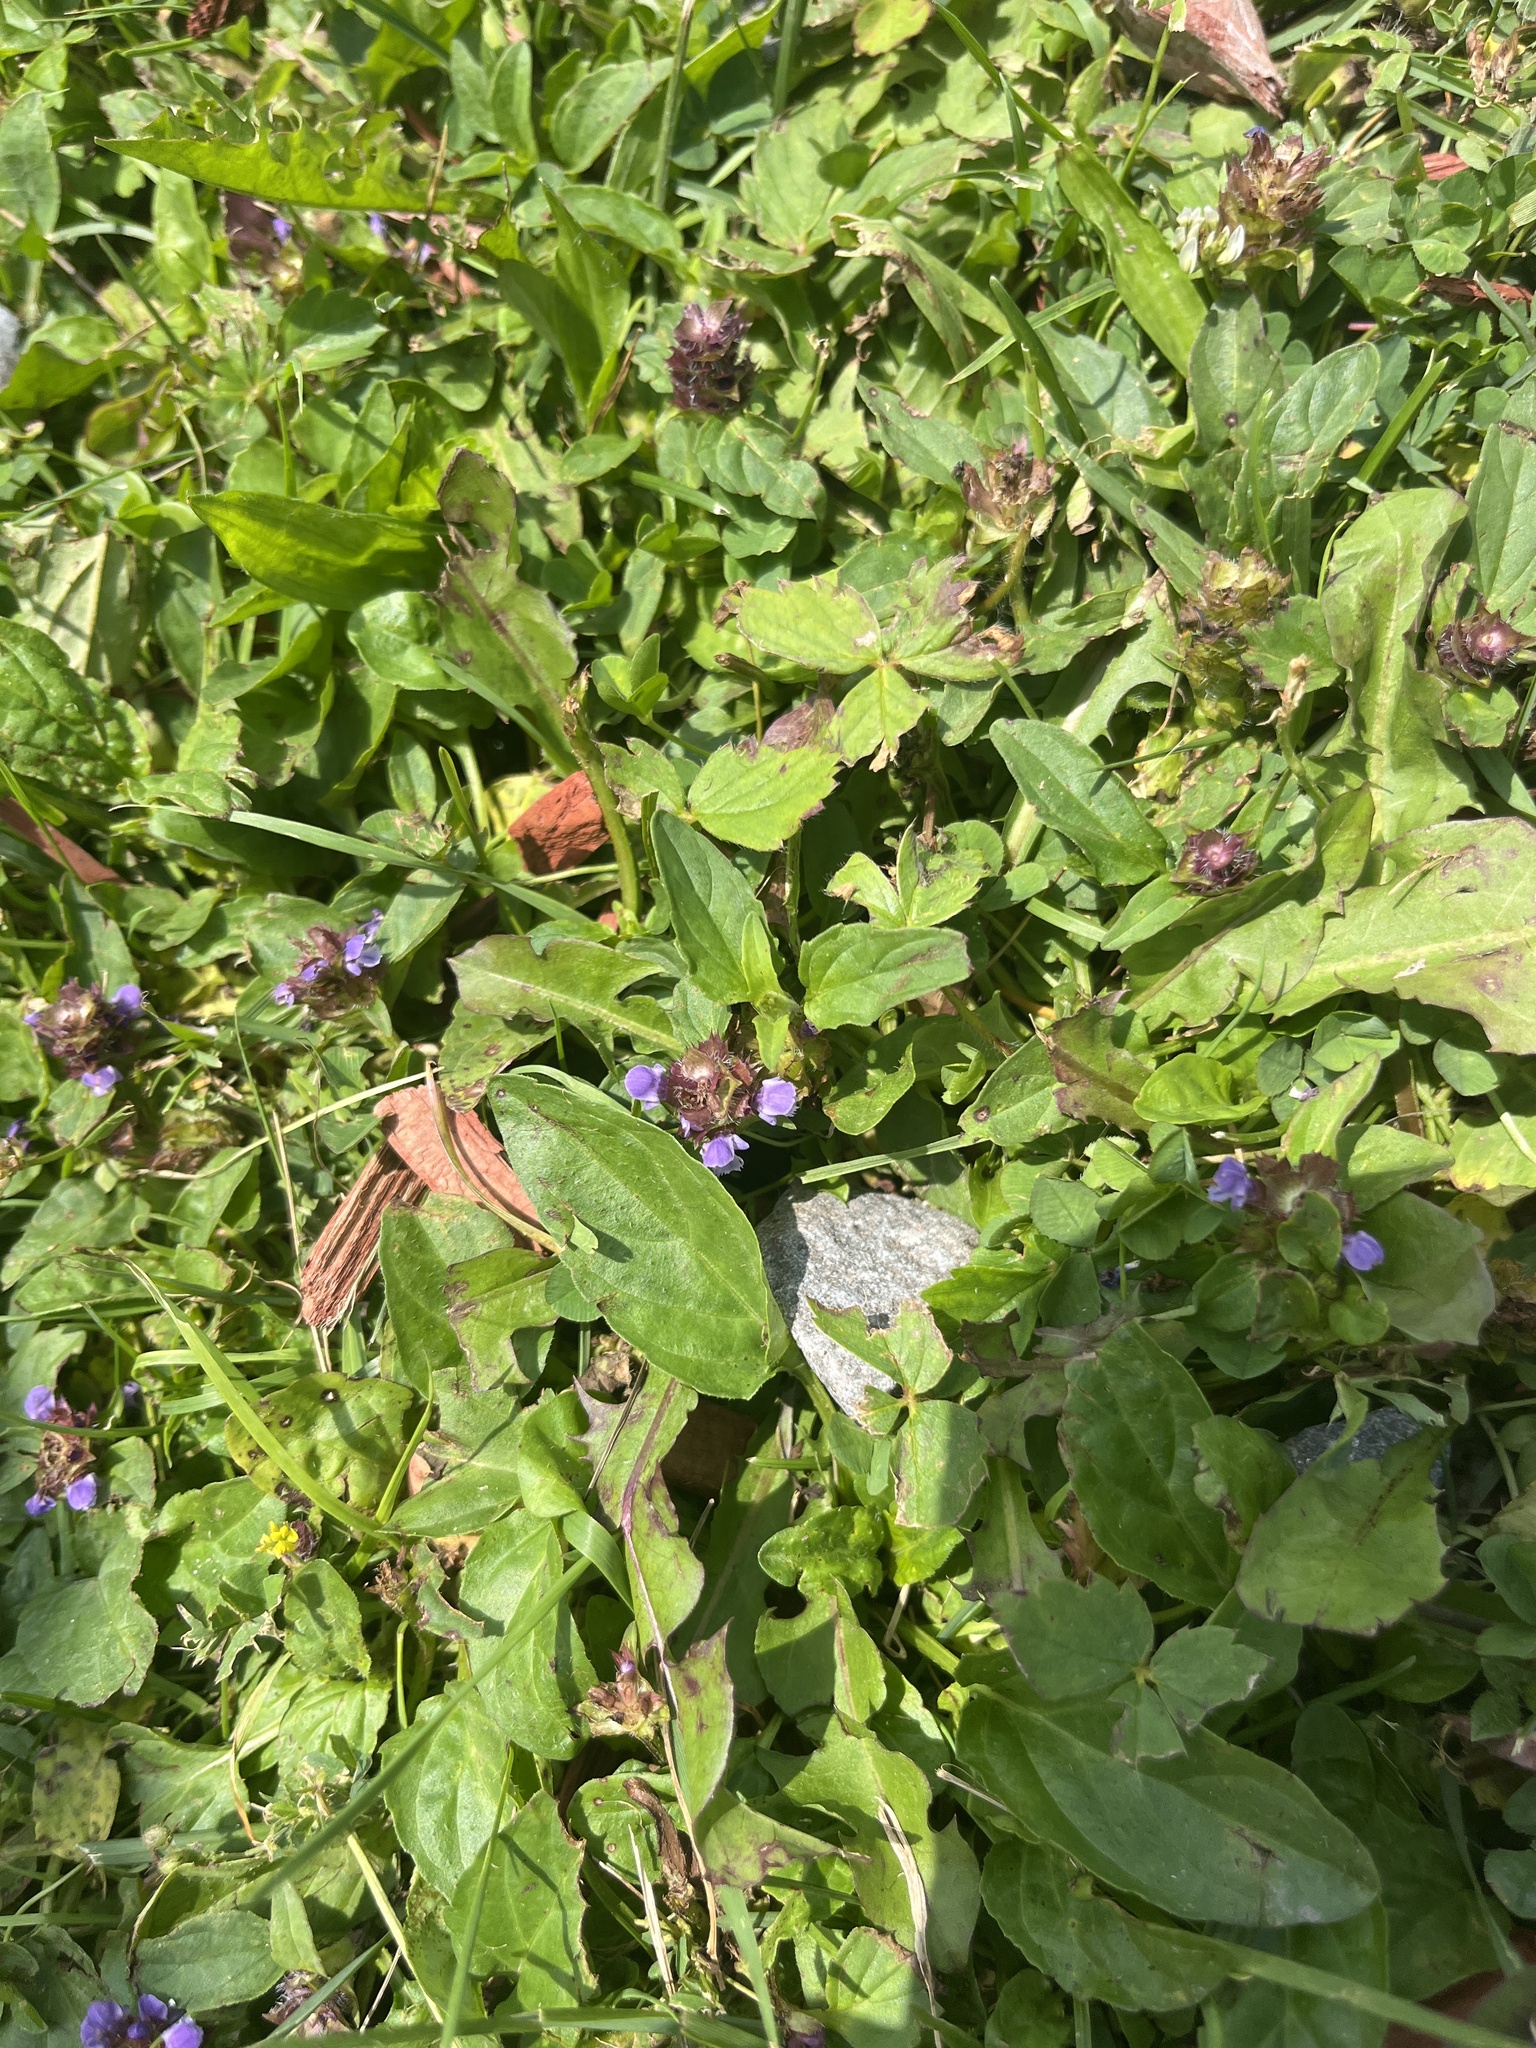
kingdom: Plantae
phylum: Tracheophyta
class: Magnoliopsida
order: Lamiales
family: Lamiaceae
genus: Prunella
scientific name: Prunella vulgaris
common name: Heal-all
